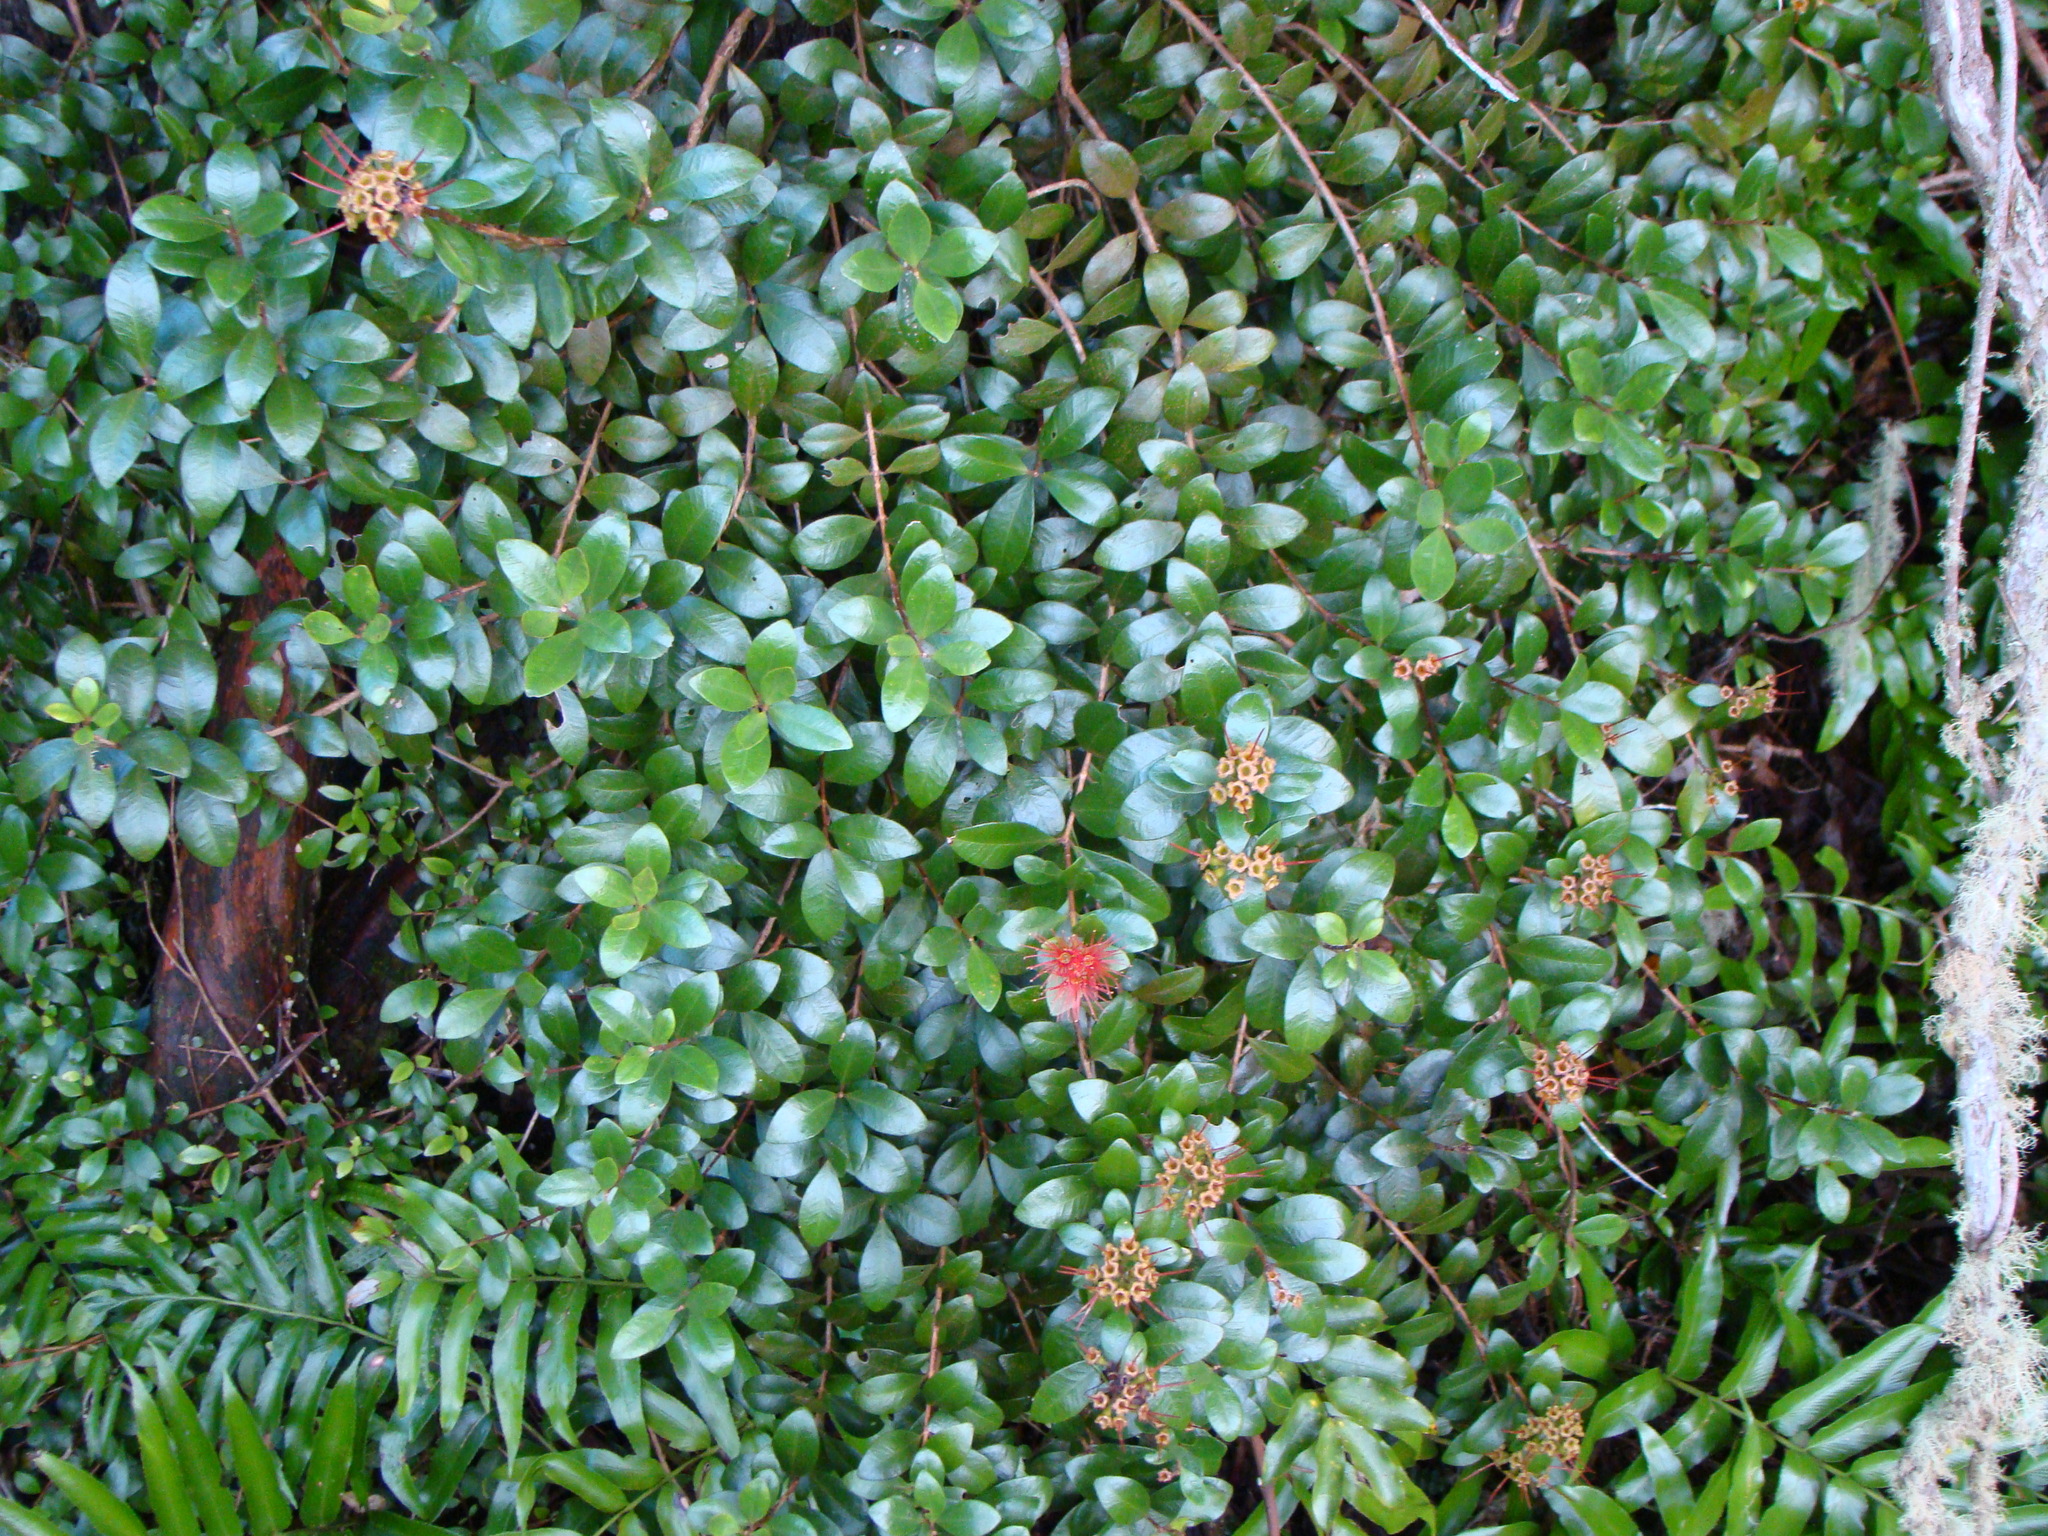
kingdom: Plantae
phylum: Tracheophyta
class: Magnoliopsida
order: Myrtales
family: Myrtaceae
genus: Metrosideros
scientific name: Metrosideros fulgens
